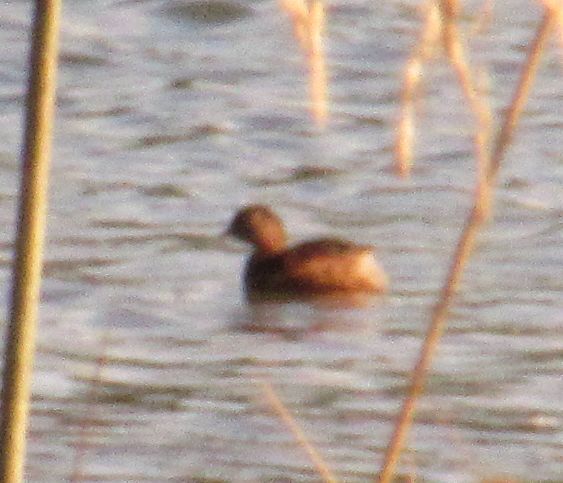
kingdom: Animalia
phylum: Chordata
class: Aves
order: Podicipediformes
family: Podicipedidae
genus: Tachybaptus
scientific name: Tachybaptus ruficollis
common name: Little grebe
